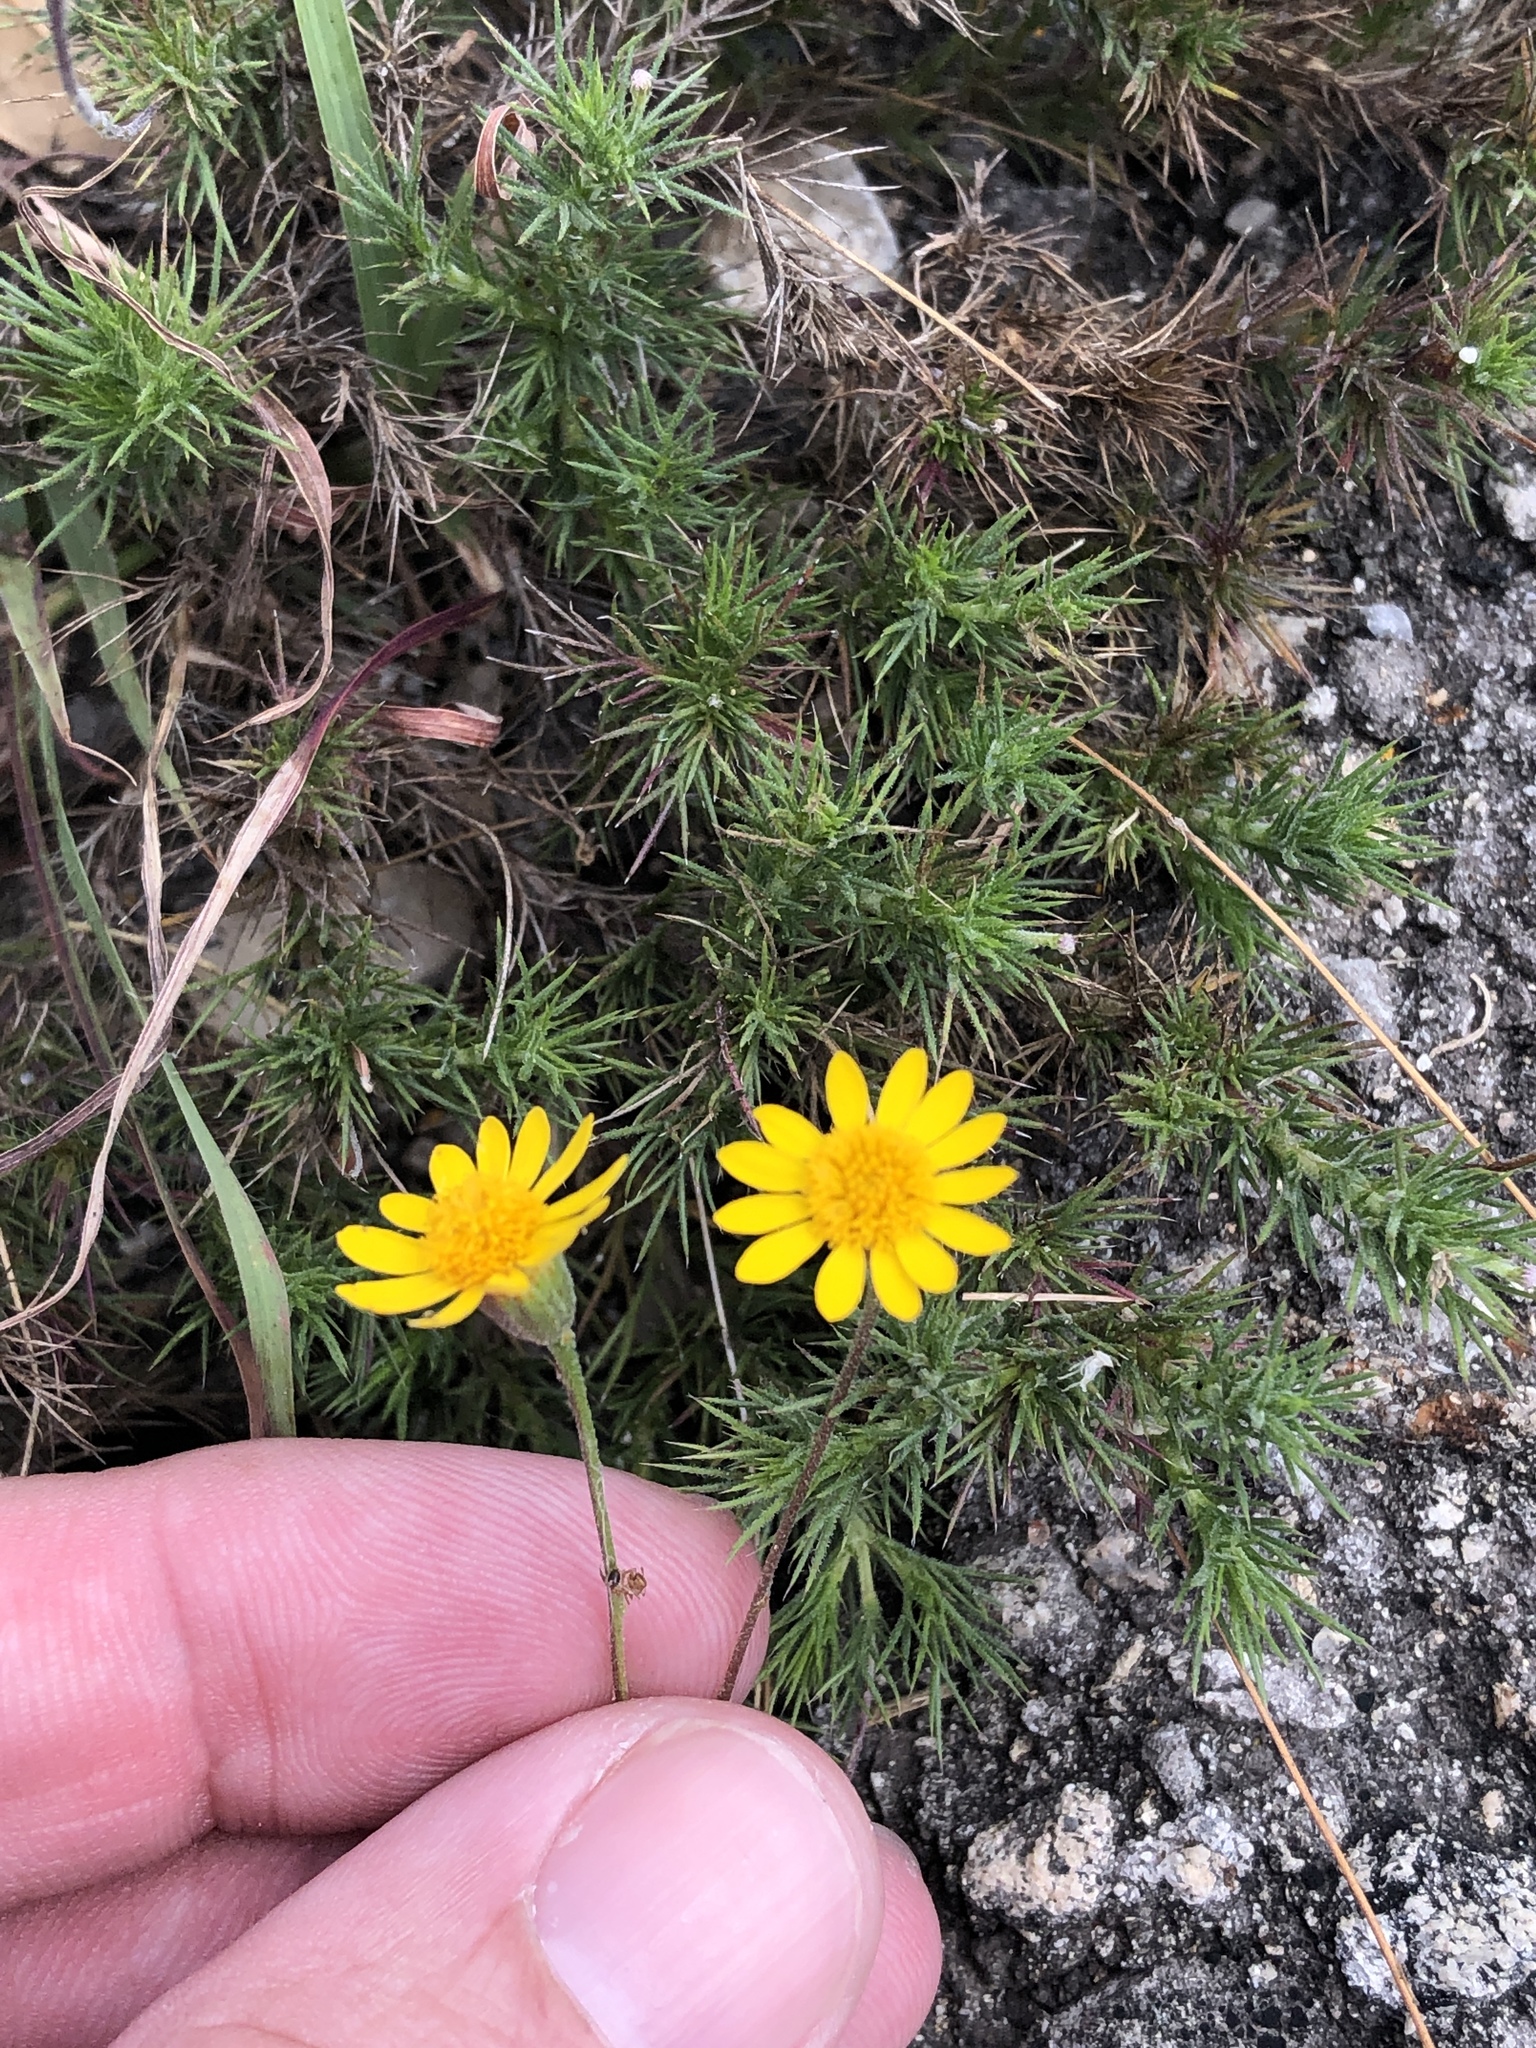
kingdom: Plantae
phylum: Tracheophyta
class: Magnoliopsida
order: Asterales
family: Asteraceae
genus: Thymophylla
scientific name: Thymophylla pentachaeta
